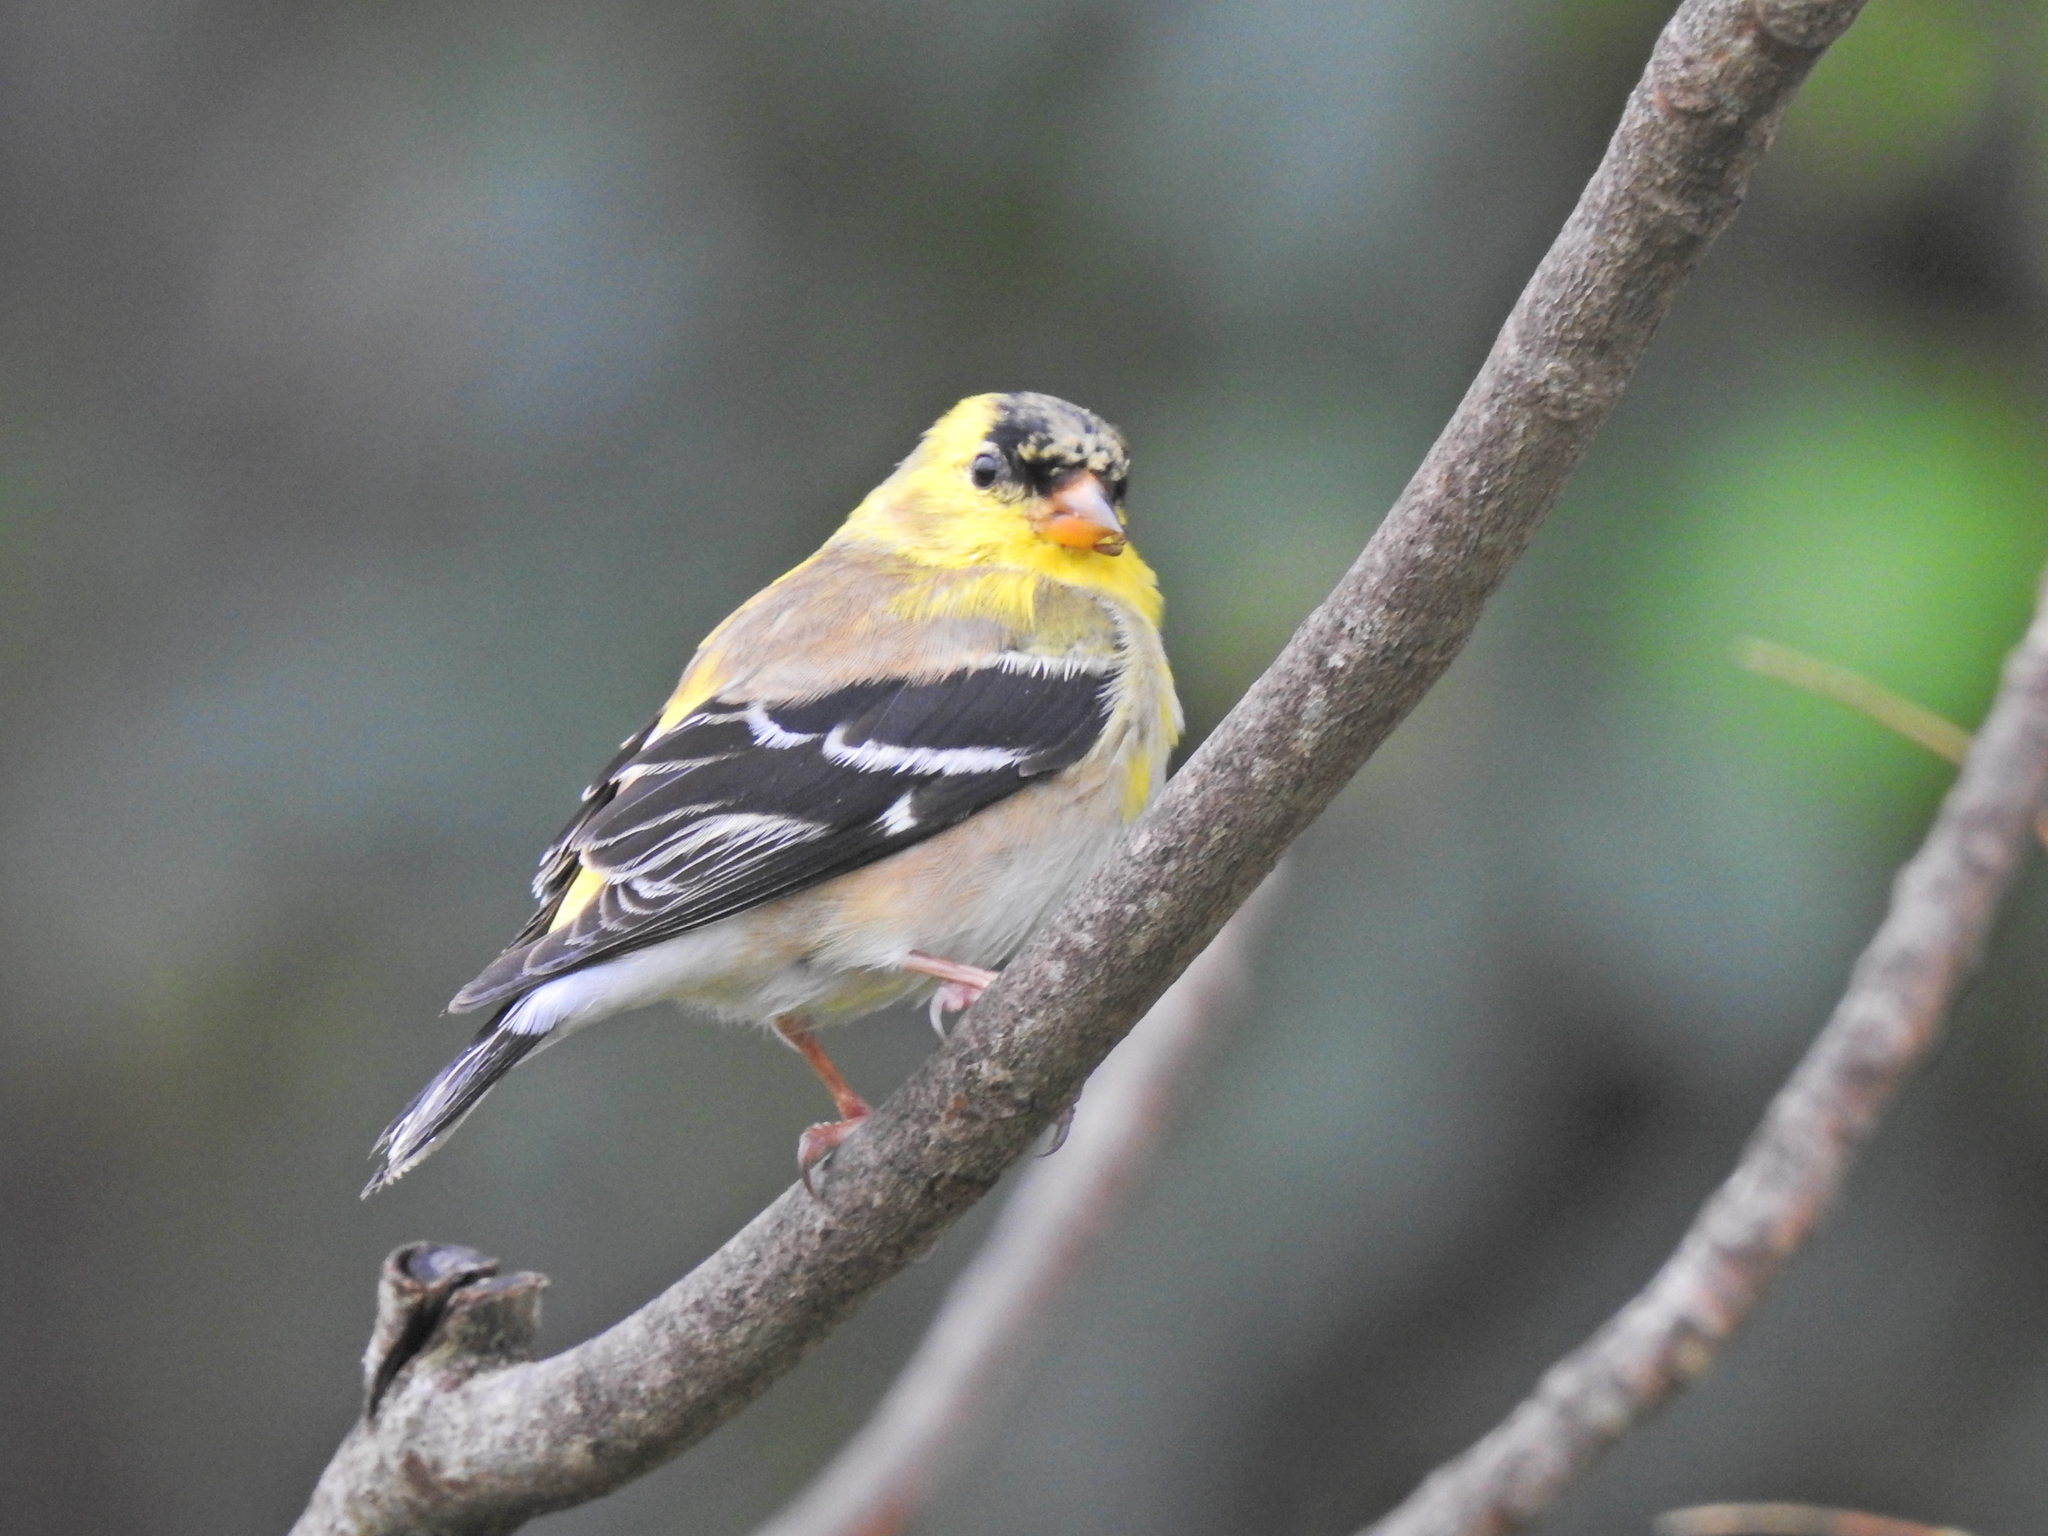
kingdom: Animalia
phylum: Chordata
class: Aves
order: Passeriformes
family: Fringillidae
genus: Spinus
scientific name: Spinus tristis
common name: American goldfinch
